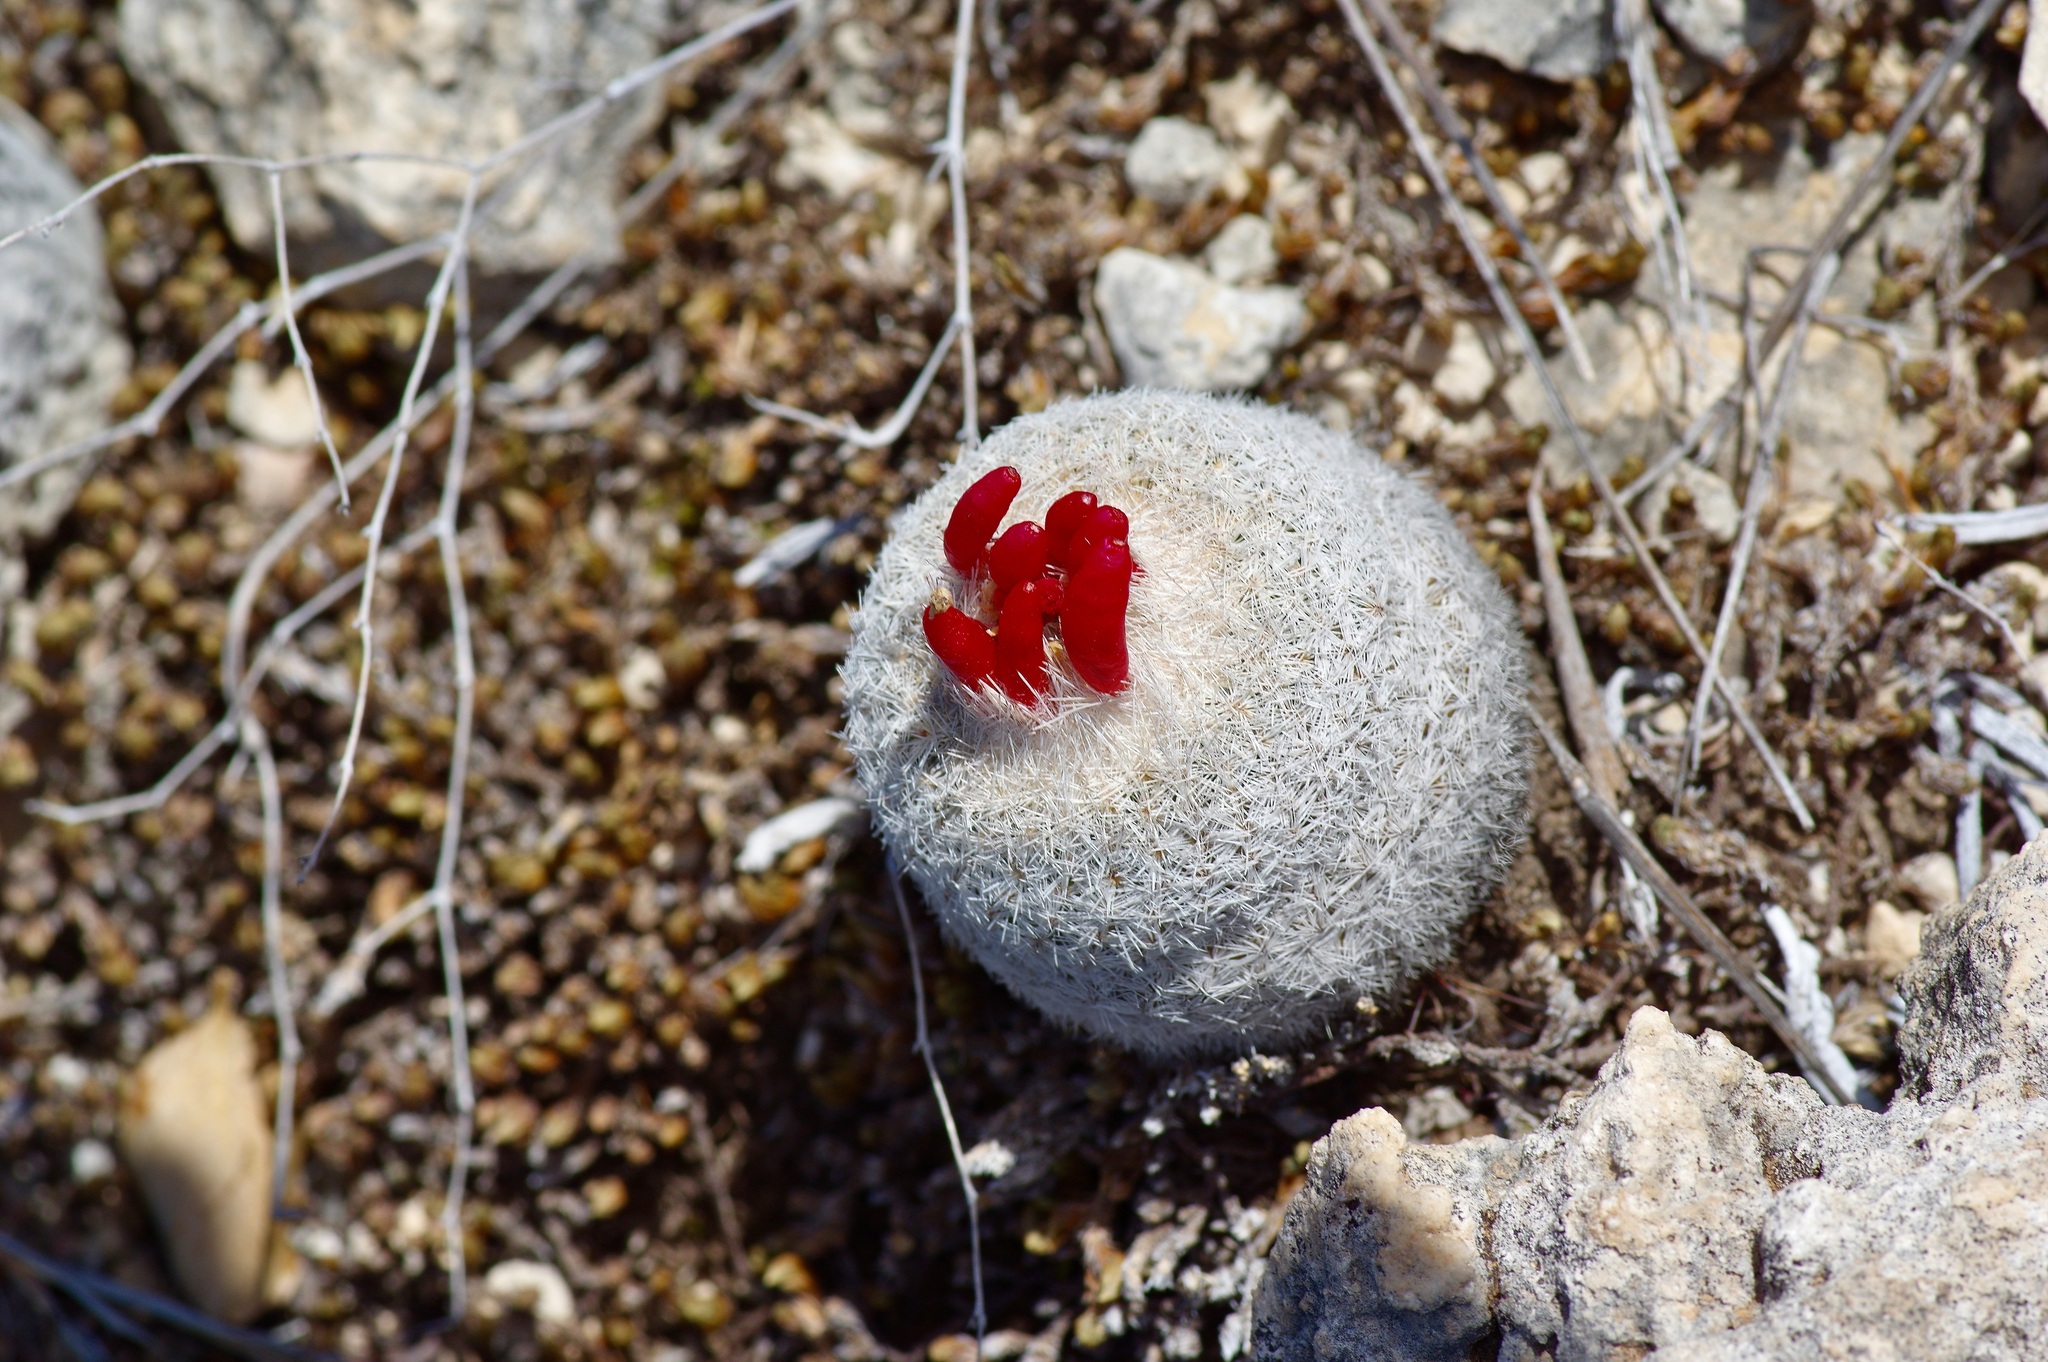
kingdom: Plantae
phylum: Tracheophyta
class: Magnoliopsida
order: Caryophyllales
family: Cactaceae
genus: Epithelantha
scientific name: Epithelantha micromeris
